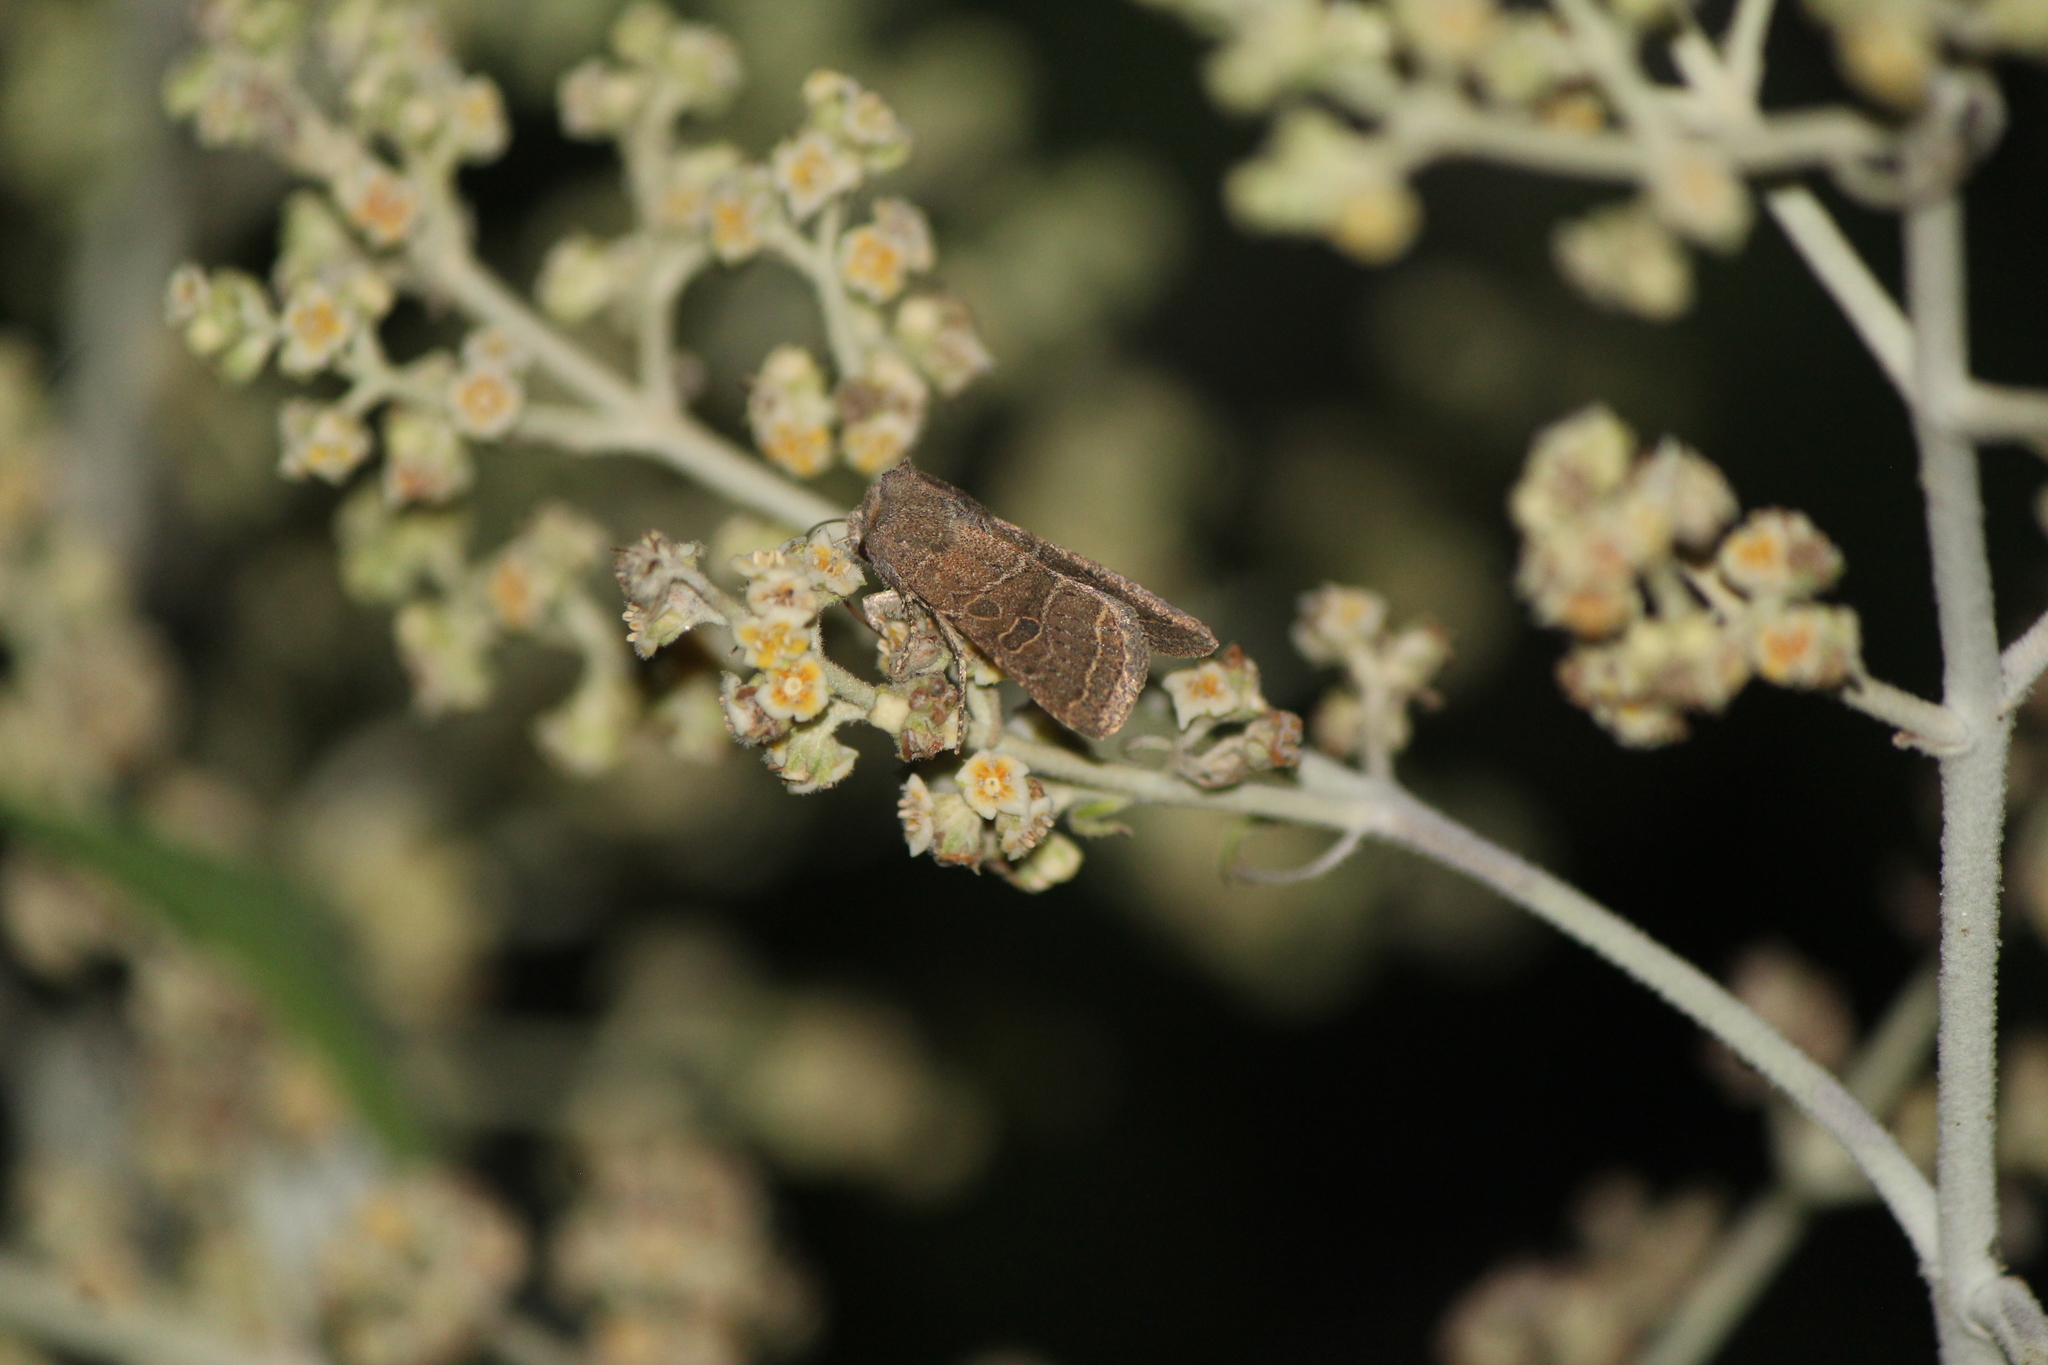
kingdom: Animalia
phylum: Arthropoda
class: Insecta
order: Lepidoptera
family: Noctuidae
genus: Orthodes
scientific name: Orthodes majuscula
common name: Rustic quaker
